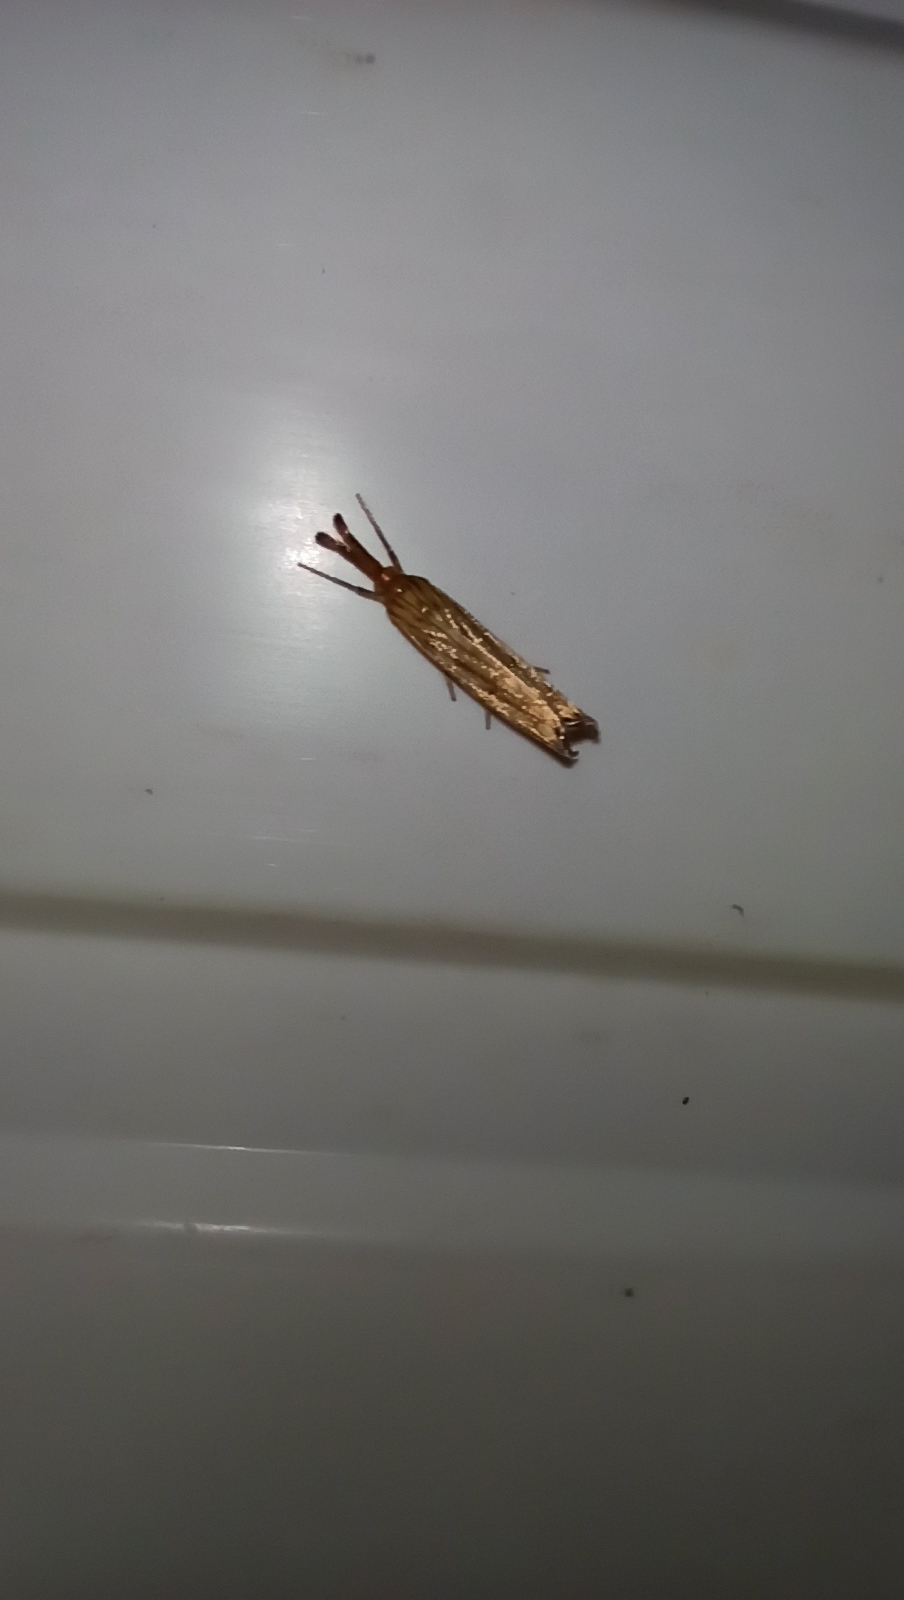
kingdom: Animalia
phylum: Arthropoda
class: Insecta
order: Lepidoptera
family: Crambidae
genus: Chrysocrambus
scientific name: Chrysocrambus linetella
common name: Orange-bar grass-veneer
